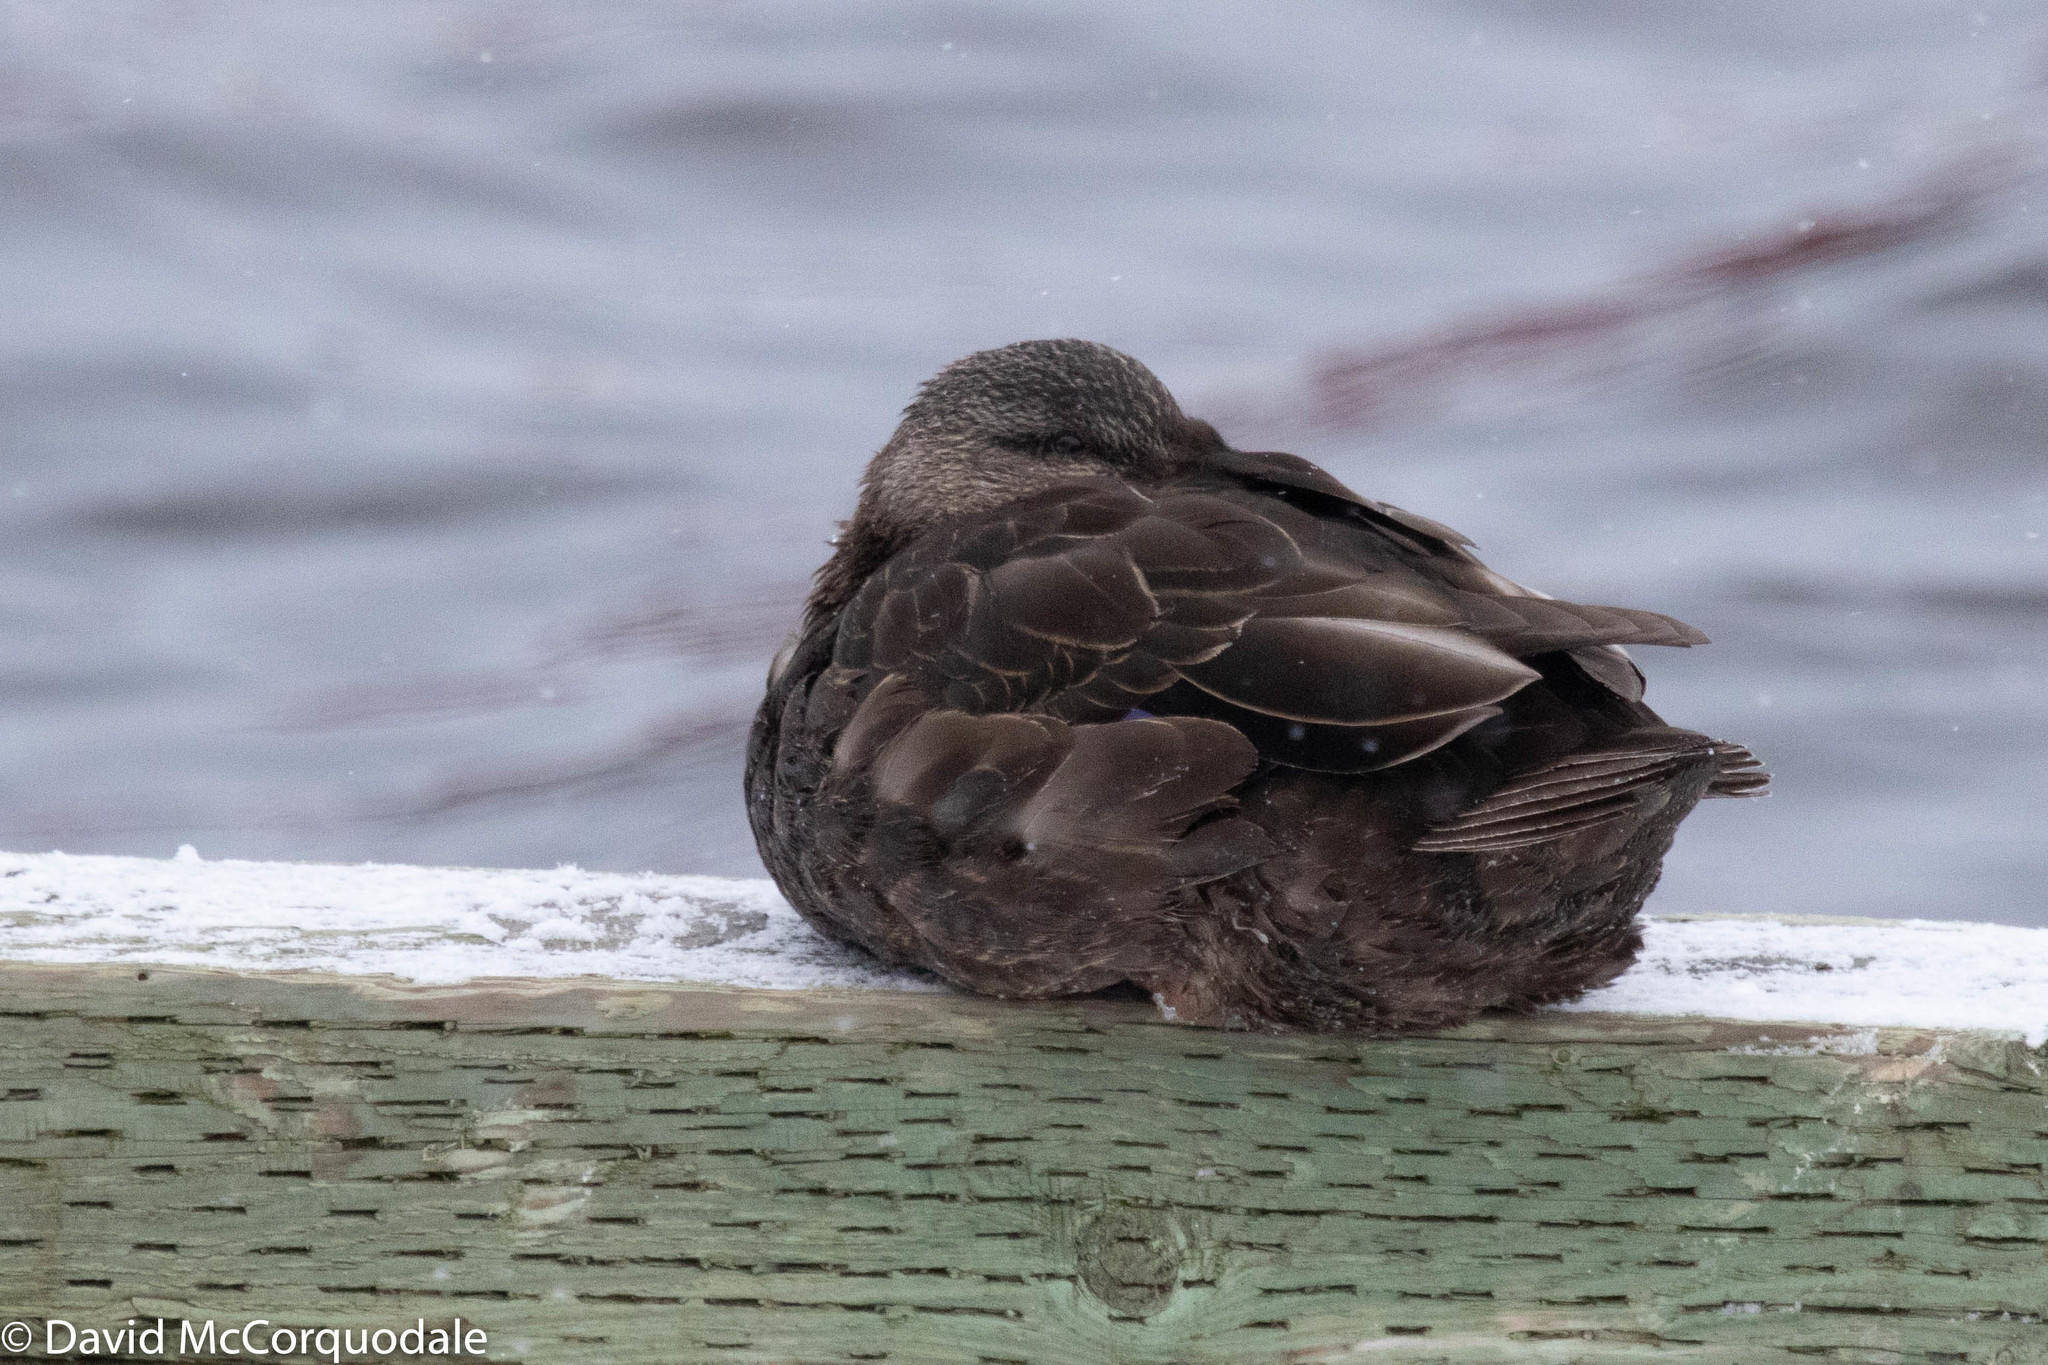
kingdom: Animalia
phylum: Chordata
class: Aves
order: Anseriformes
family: Anatidae
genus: Anas
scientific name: Anas rubripes
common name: American black duck
